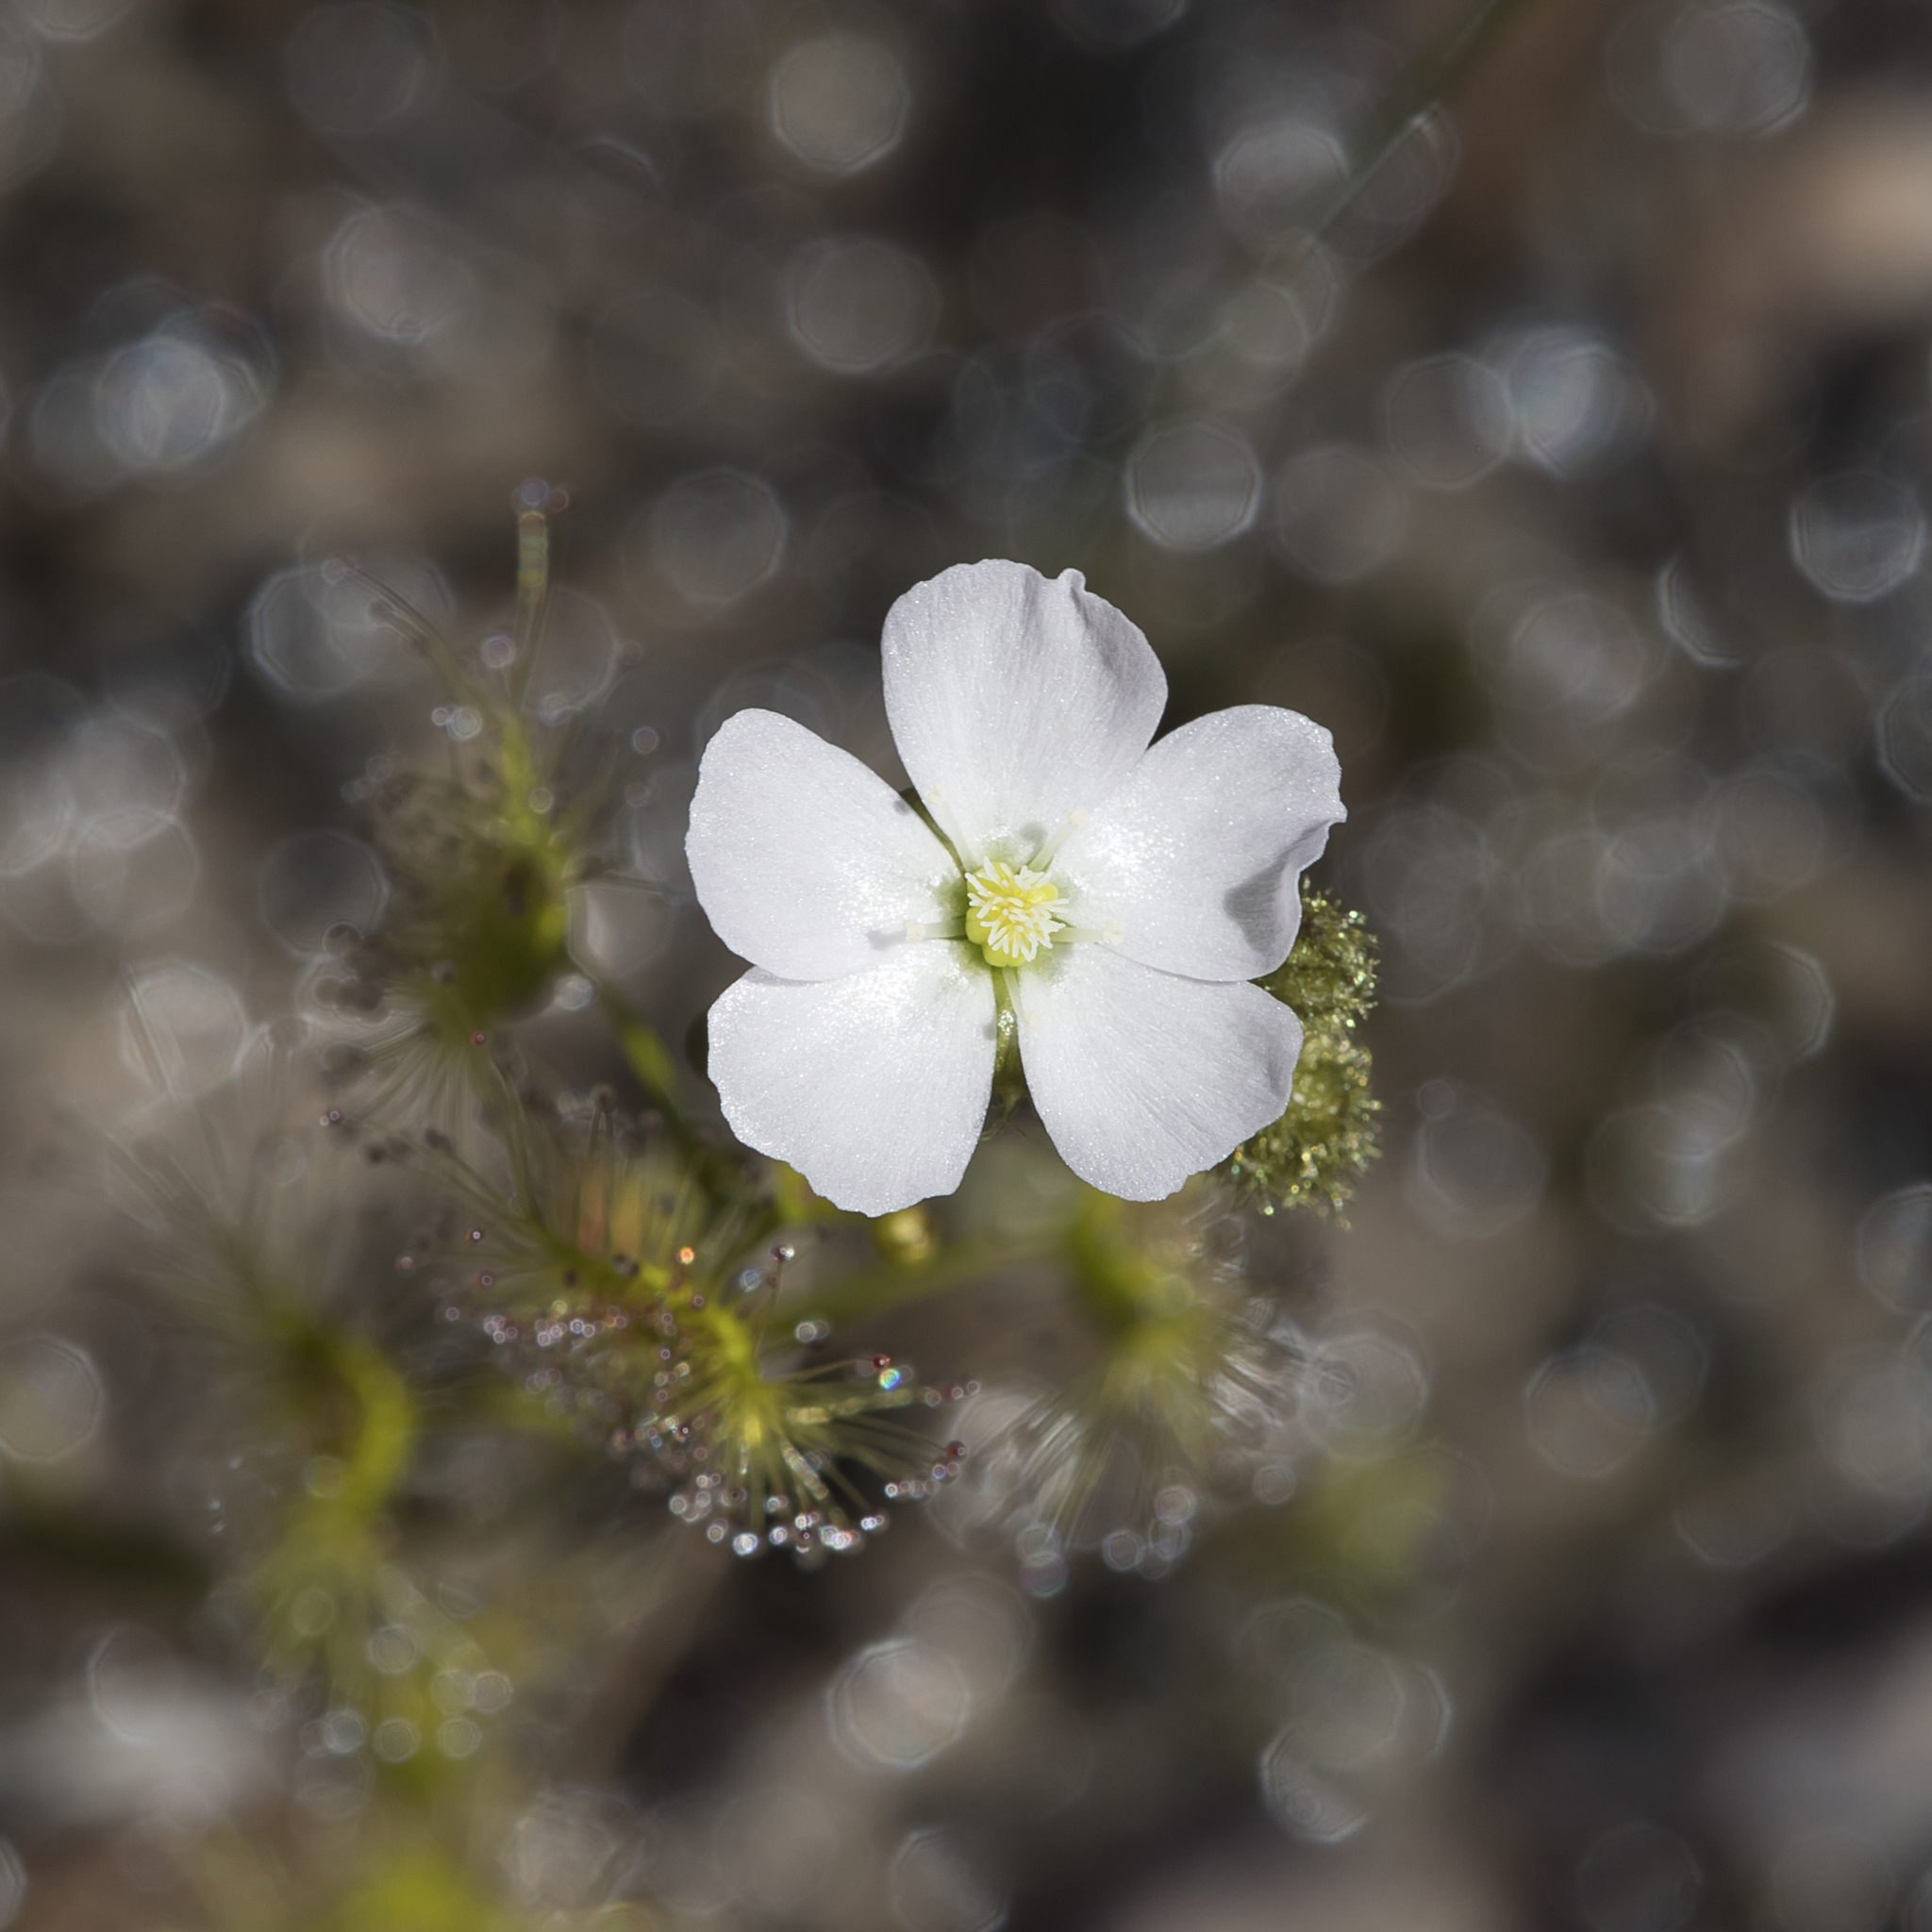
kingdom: Plantae
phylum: Tracheophyta
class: Magnoliopsida
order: Caryophyllales
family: Droseraceae
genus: Drosera
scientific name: Drosera gunniana
